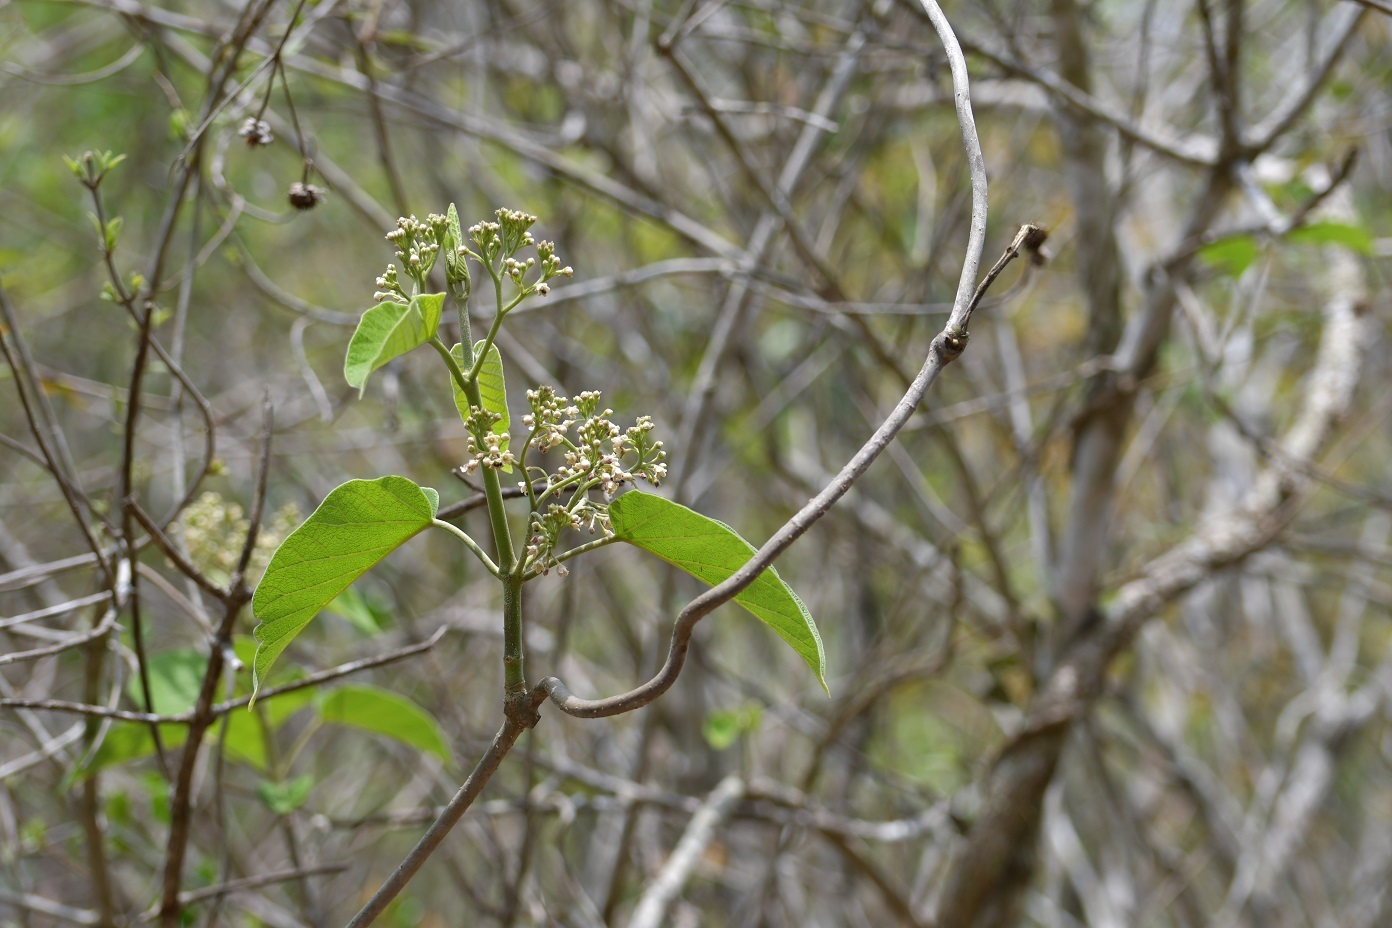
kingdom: Plantae
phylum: Tracheophyta
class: Magnoliopsida
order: Gentianales
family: Apocynaceae
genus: Ruehssia
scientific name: Ruehssia mexicana
